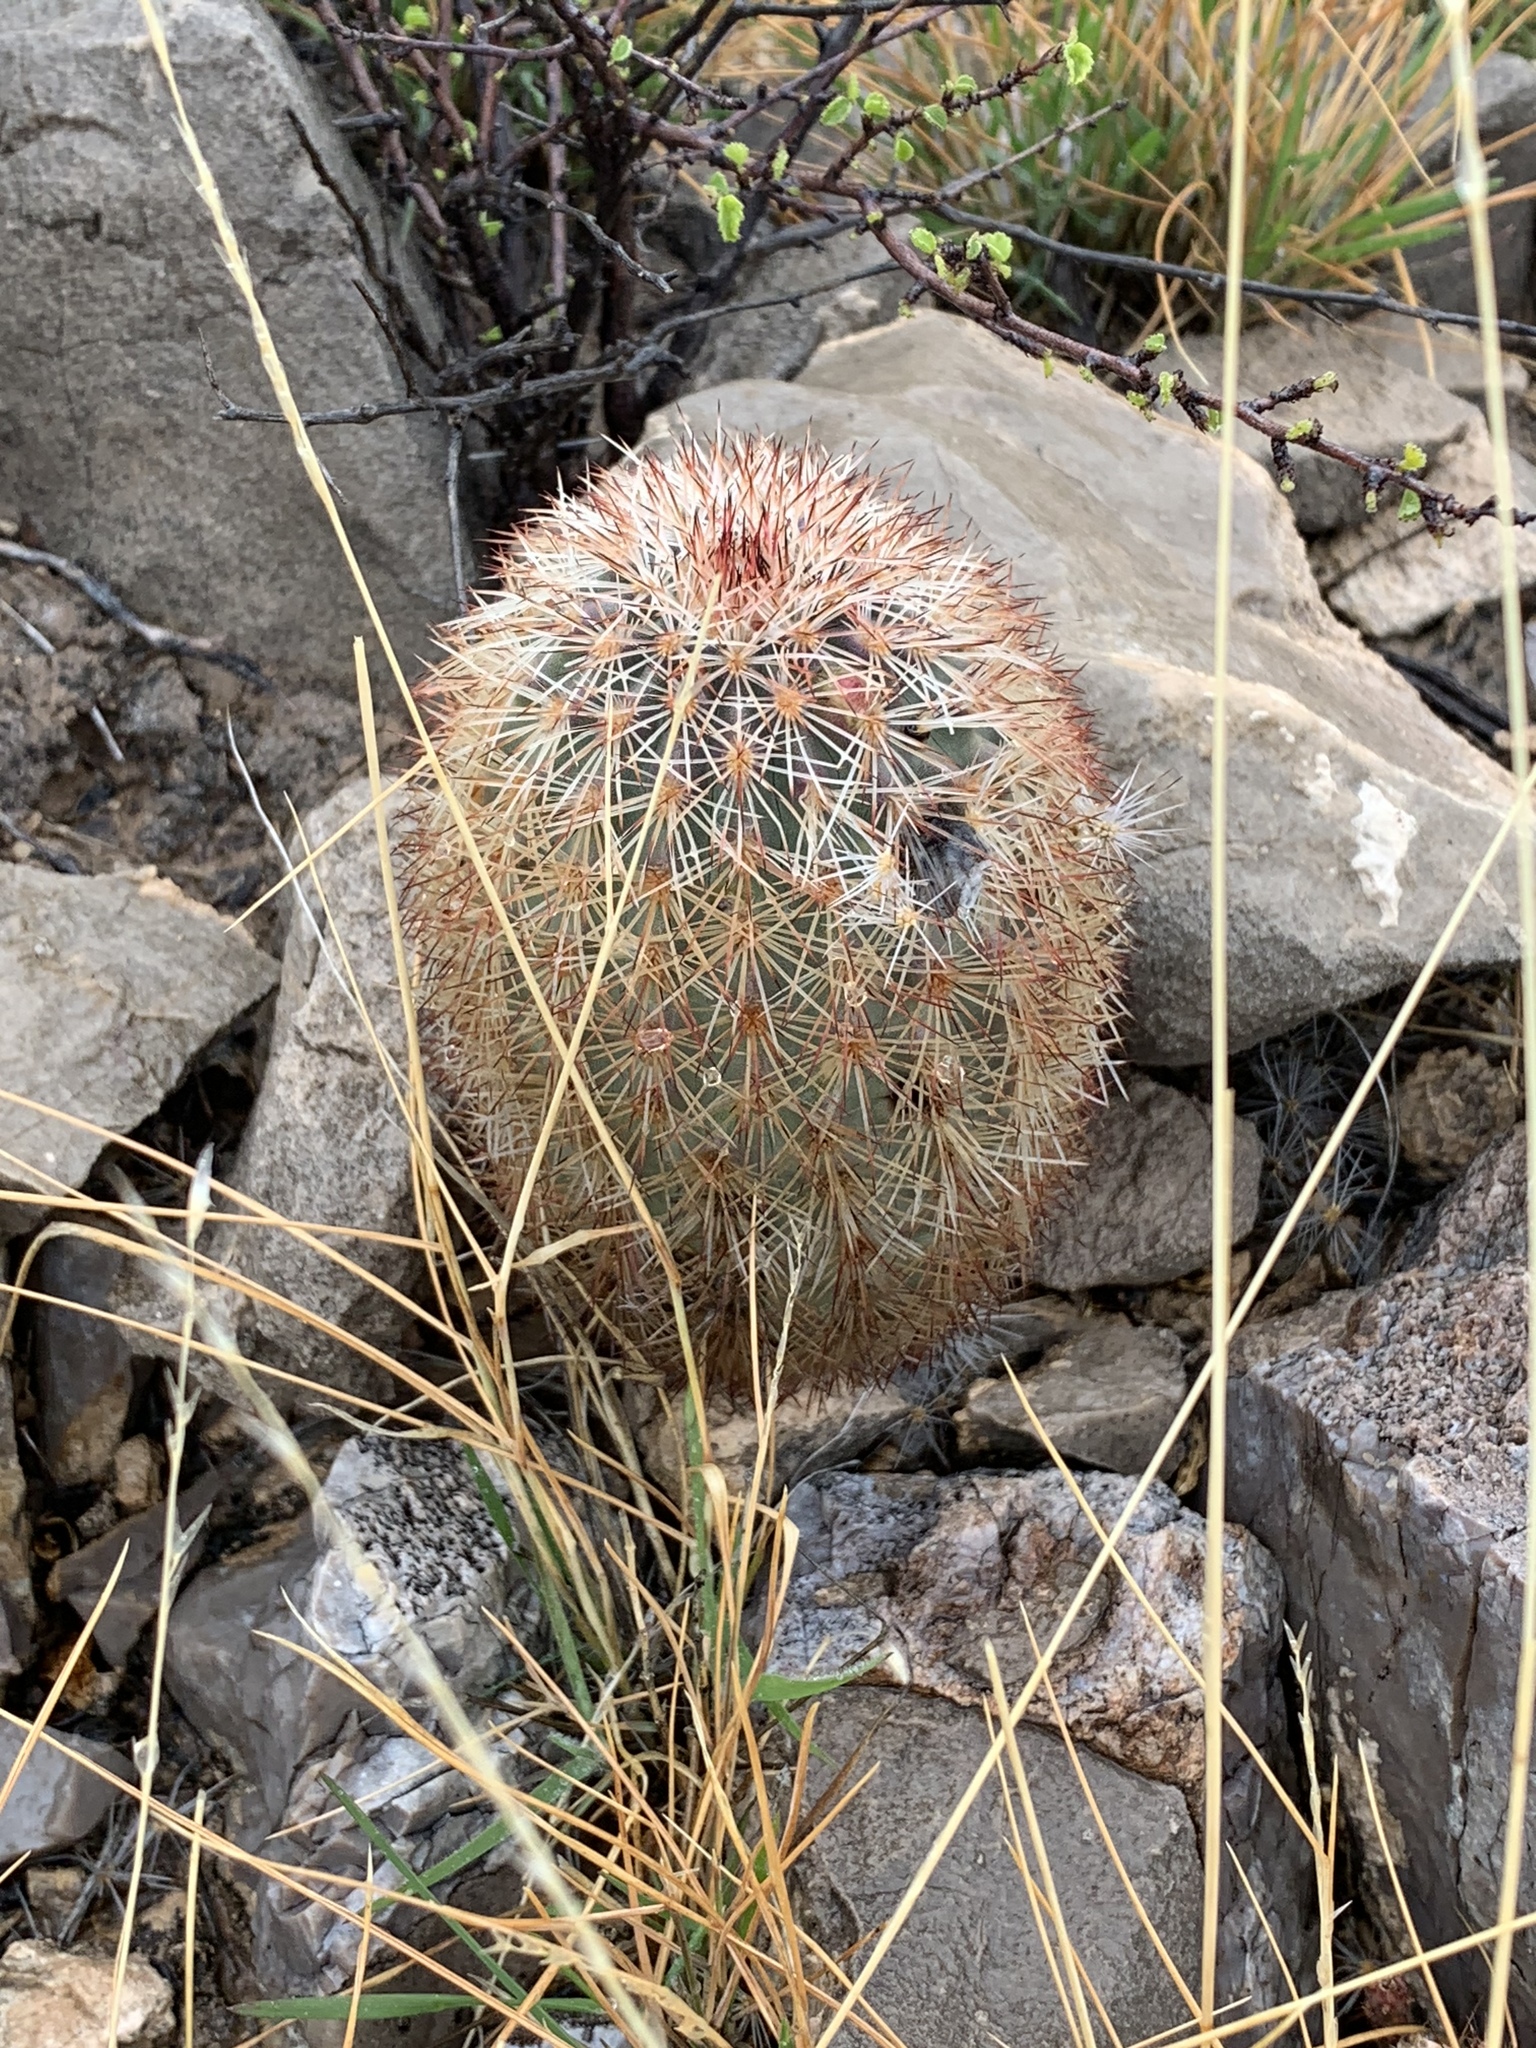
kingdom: Plantae
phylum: Tracheophyta
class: Magnoliopsida
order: Caryophyllales
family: Cactaceae
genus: Echinocereus
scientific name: Echinocereus dasyacanthus
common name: Spiny hedgehog cactus
